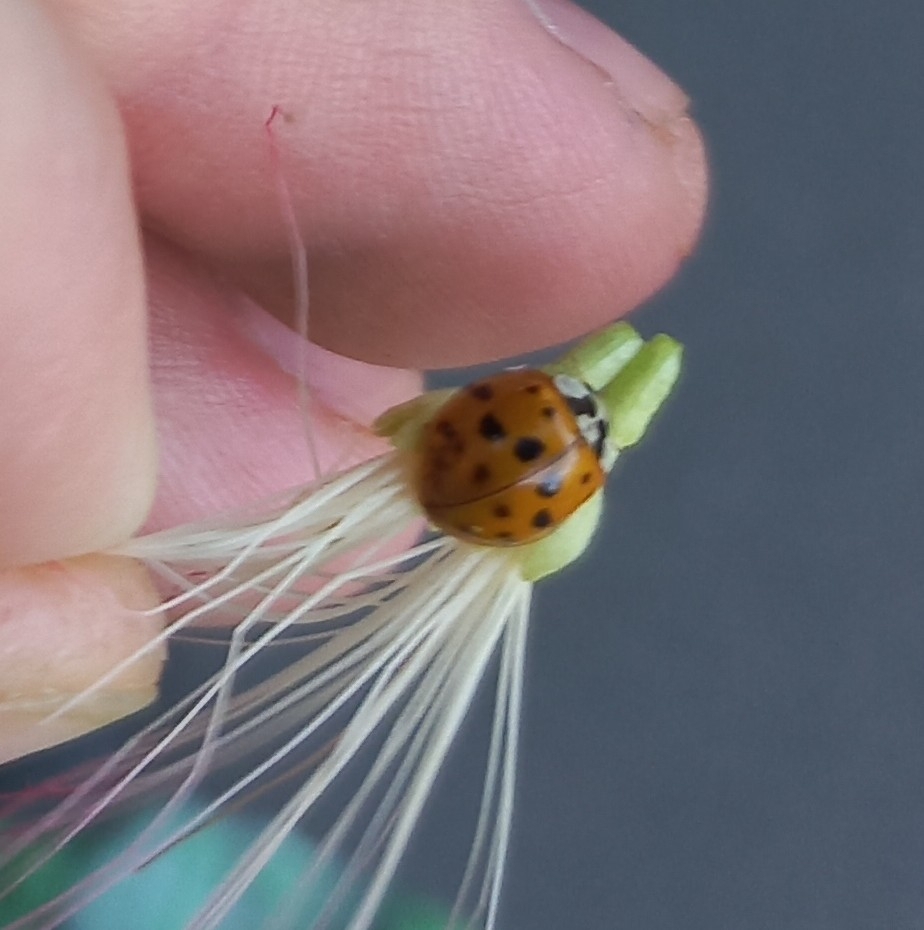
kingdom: Animalia
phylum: Arthropoda
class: Insecta
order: Coleoptera
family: Coccinellidae
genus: Harmonia
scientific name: Harmonia axyridis
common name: Harlequin ladybird
